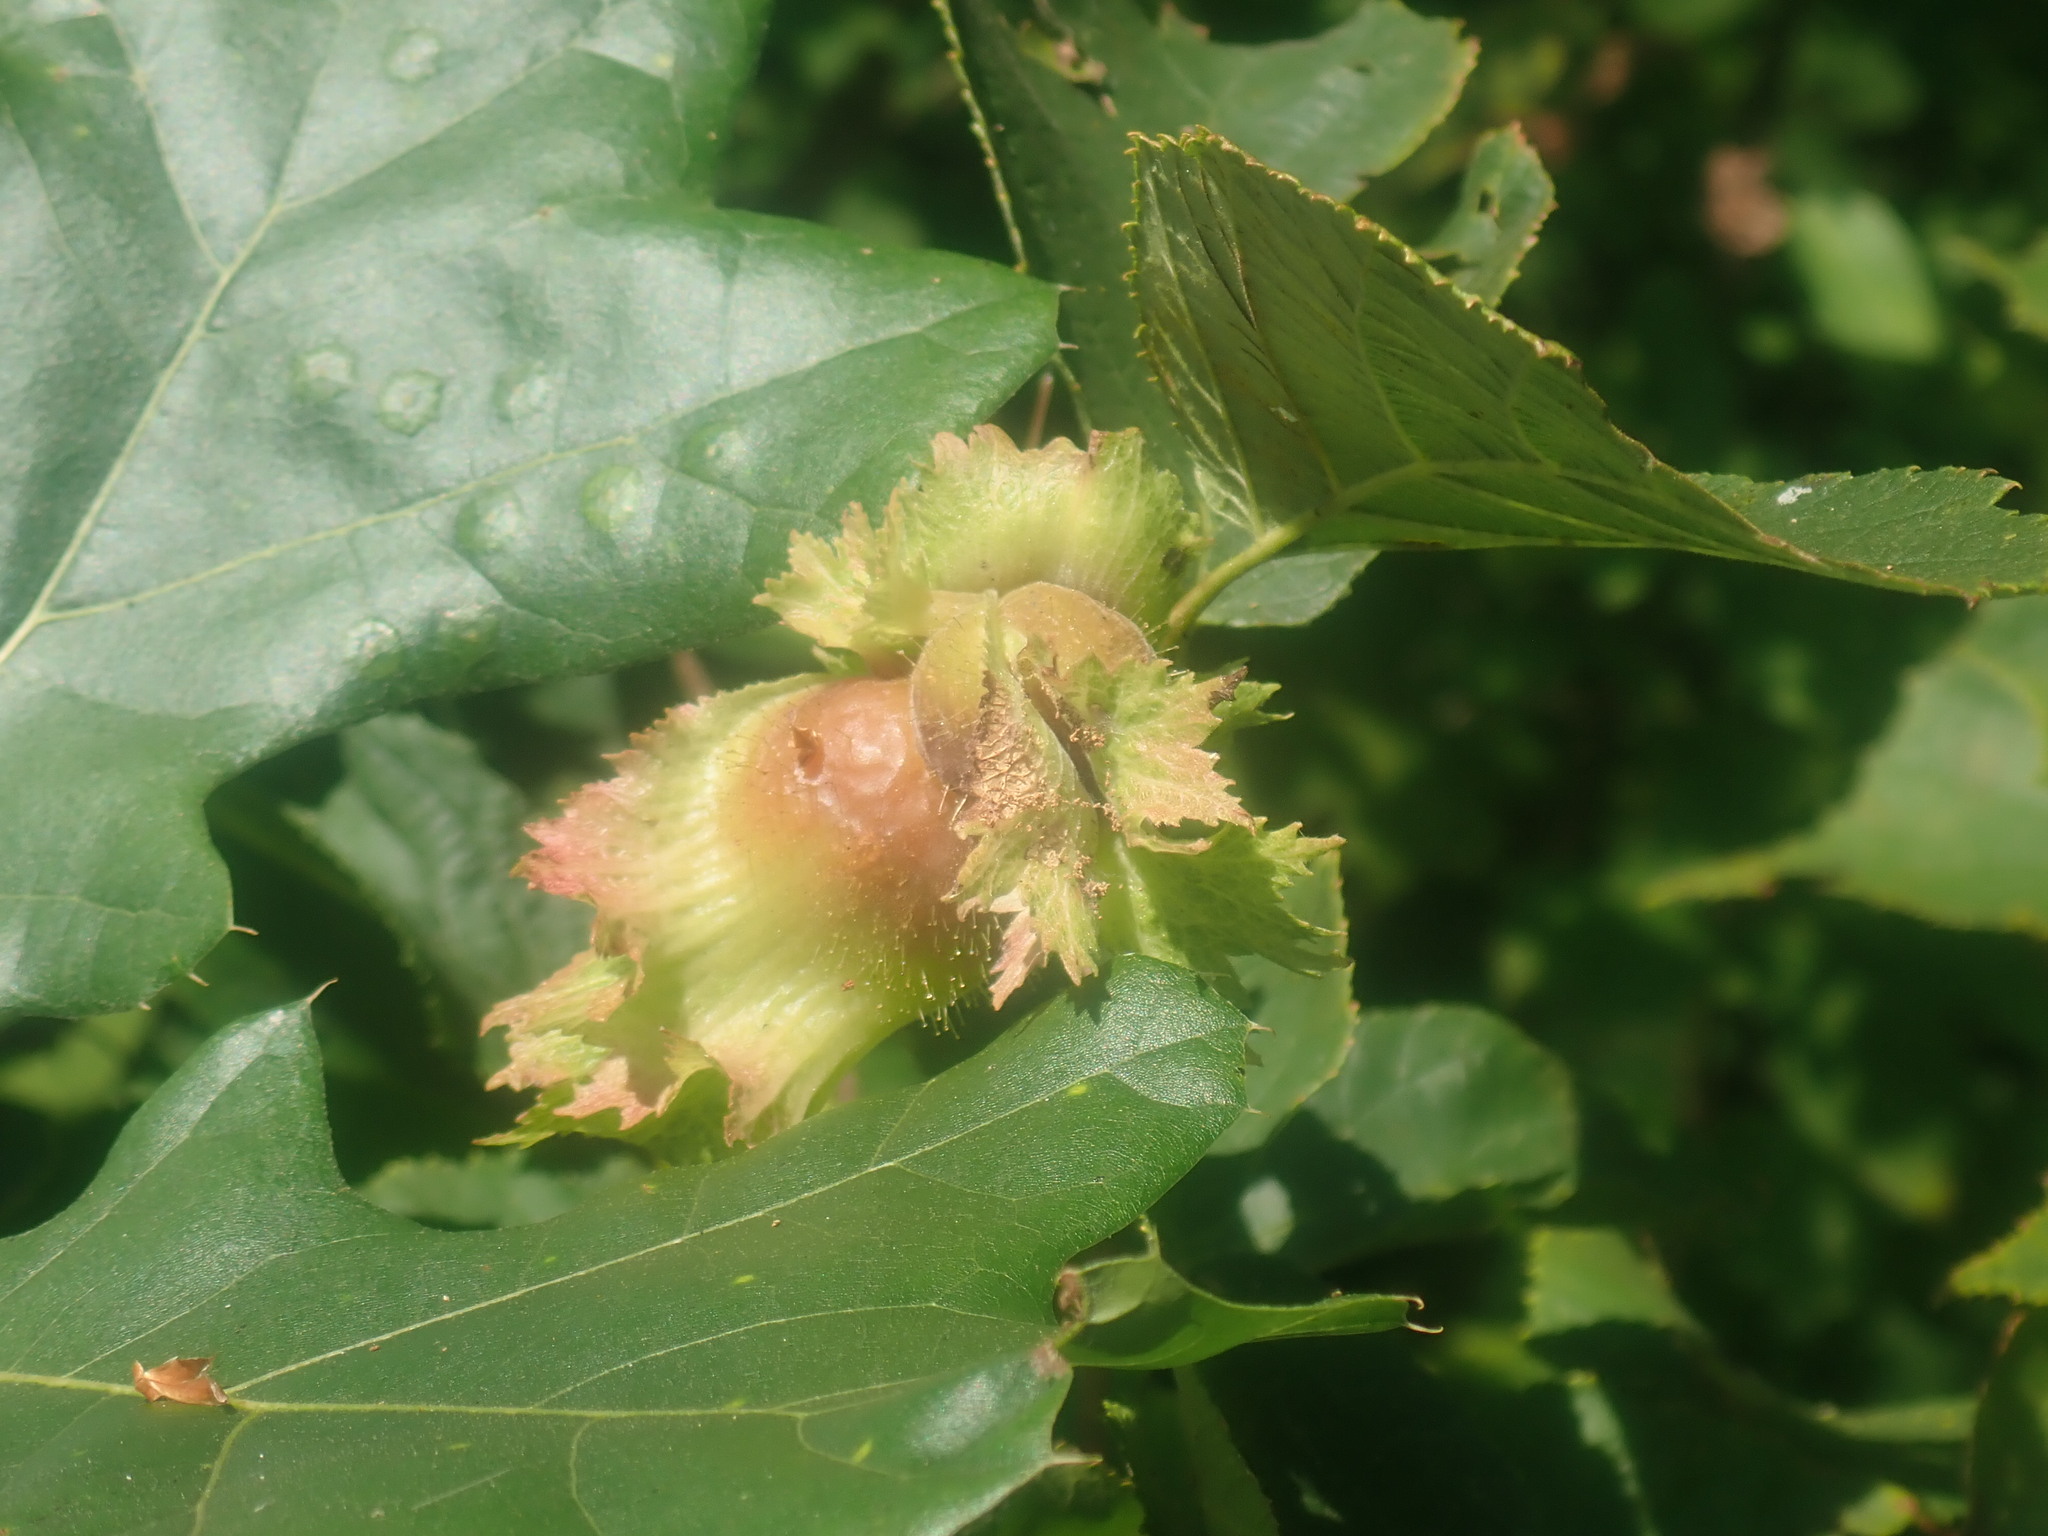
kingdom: Plantae
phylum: Tracheophyta
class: Magnoliopsida
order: Fagales
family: Betulaceae
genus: Corylus
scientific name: Corylus americana
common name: American hazel
